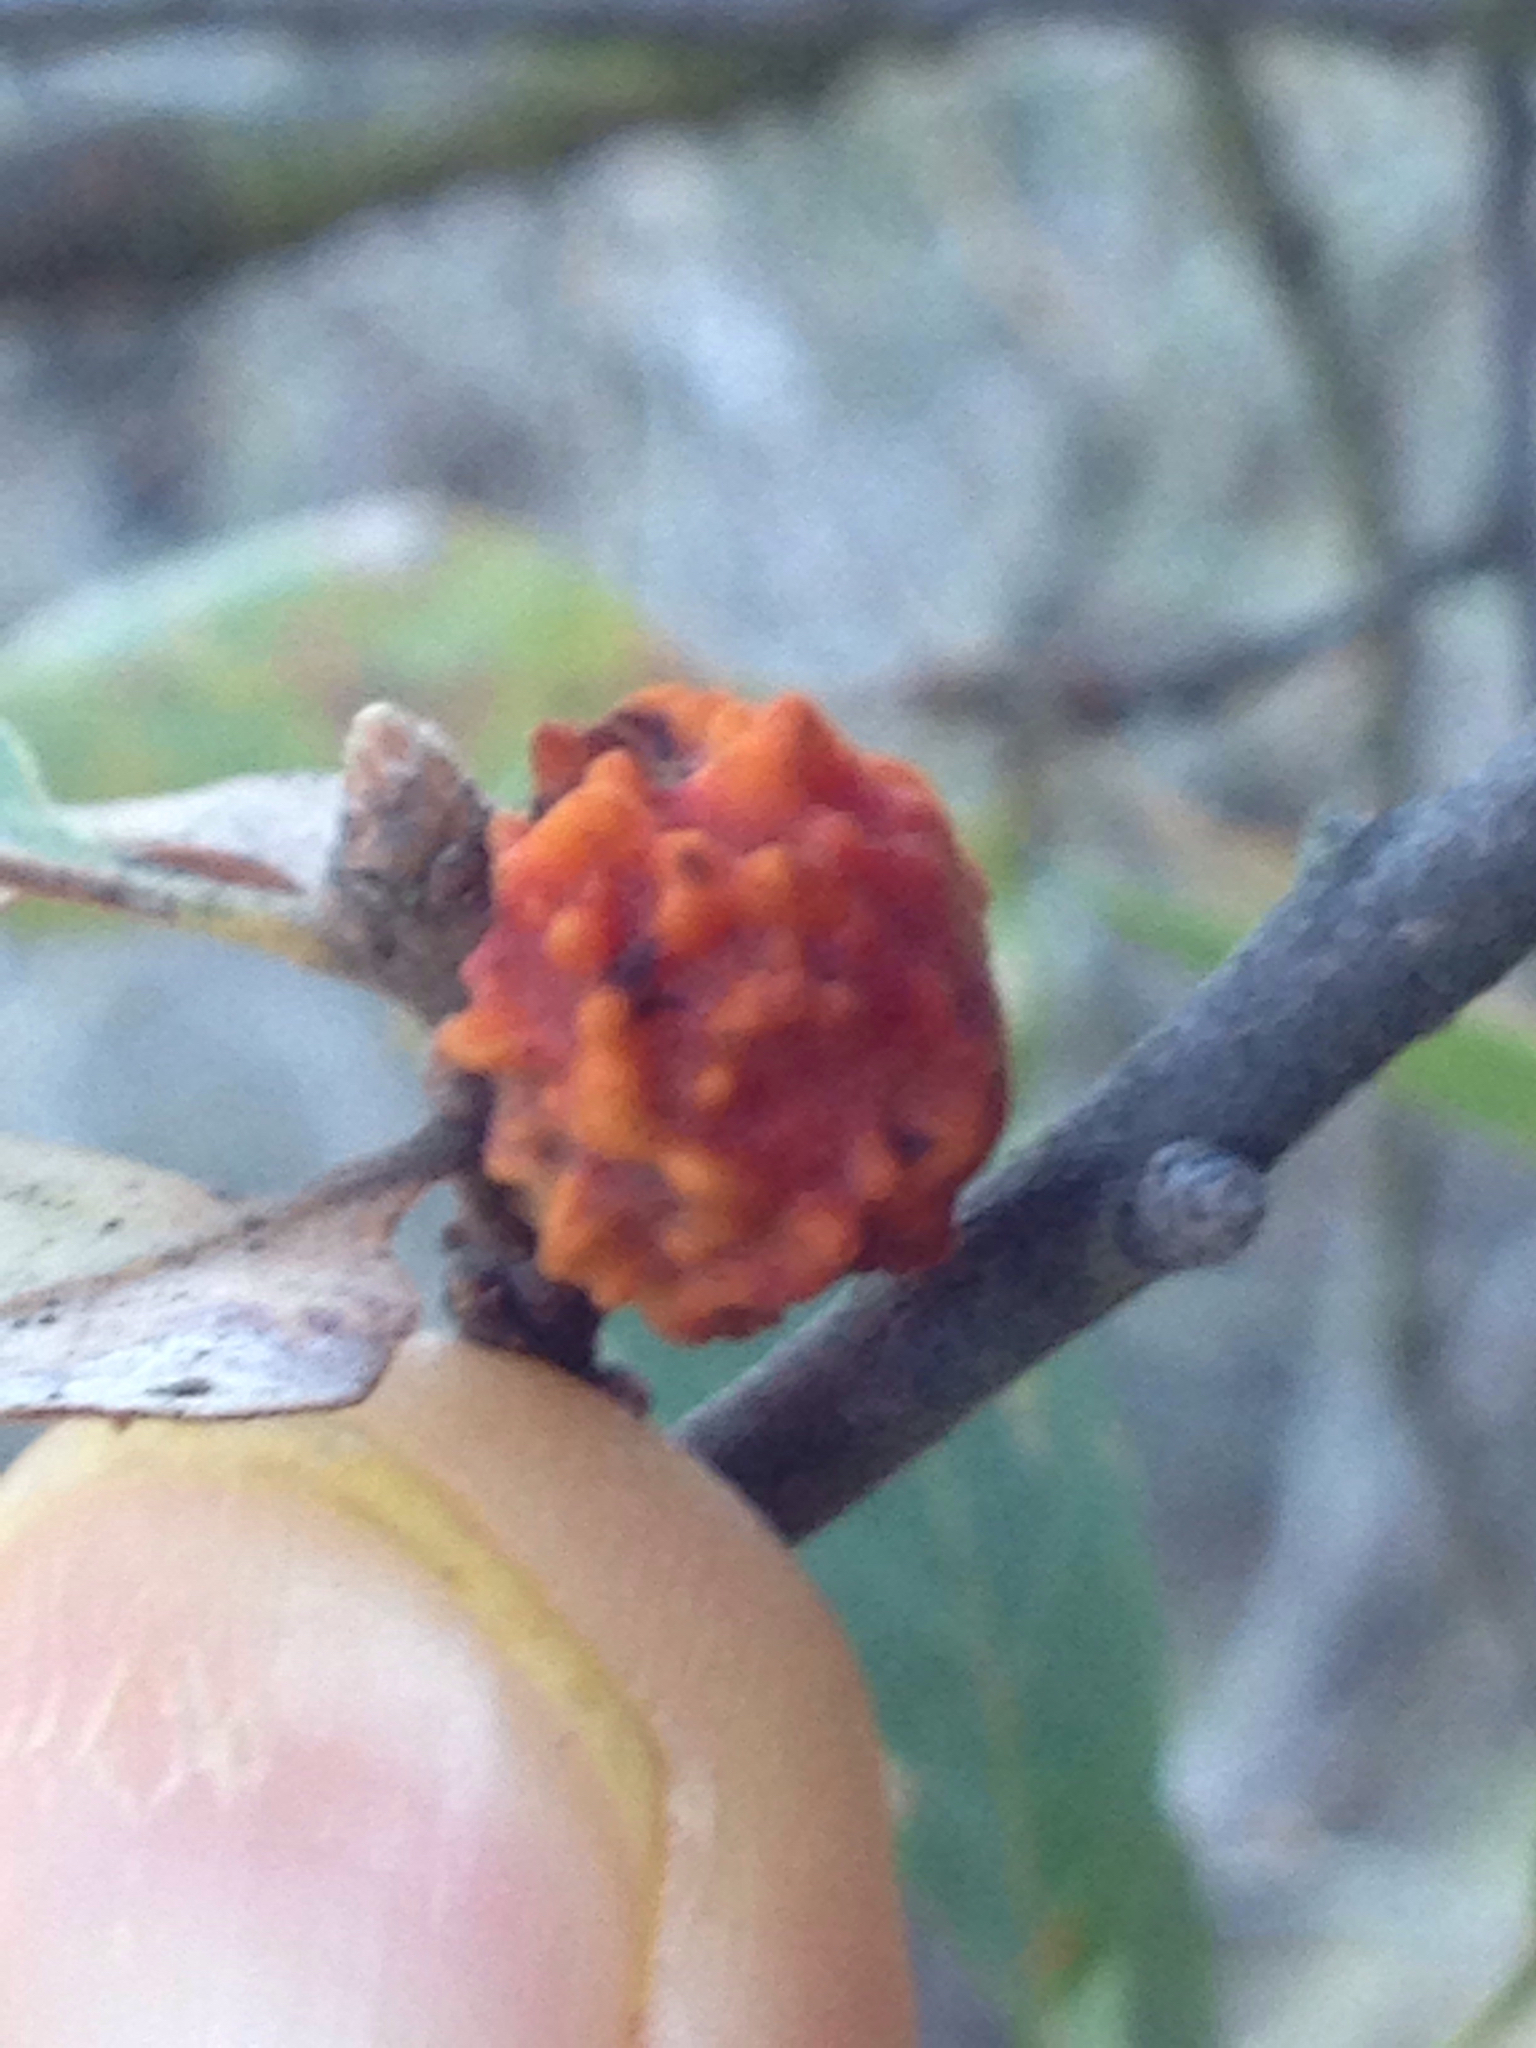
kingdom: Animalia
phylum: Arthropoda
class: Insecta
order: Hymenoptera
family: Cynipidae
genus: Burnettweldia
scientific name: Burnettweldia
